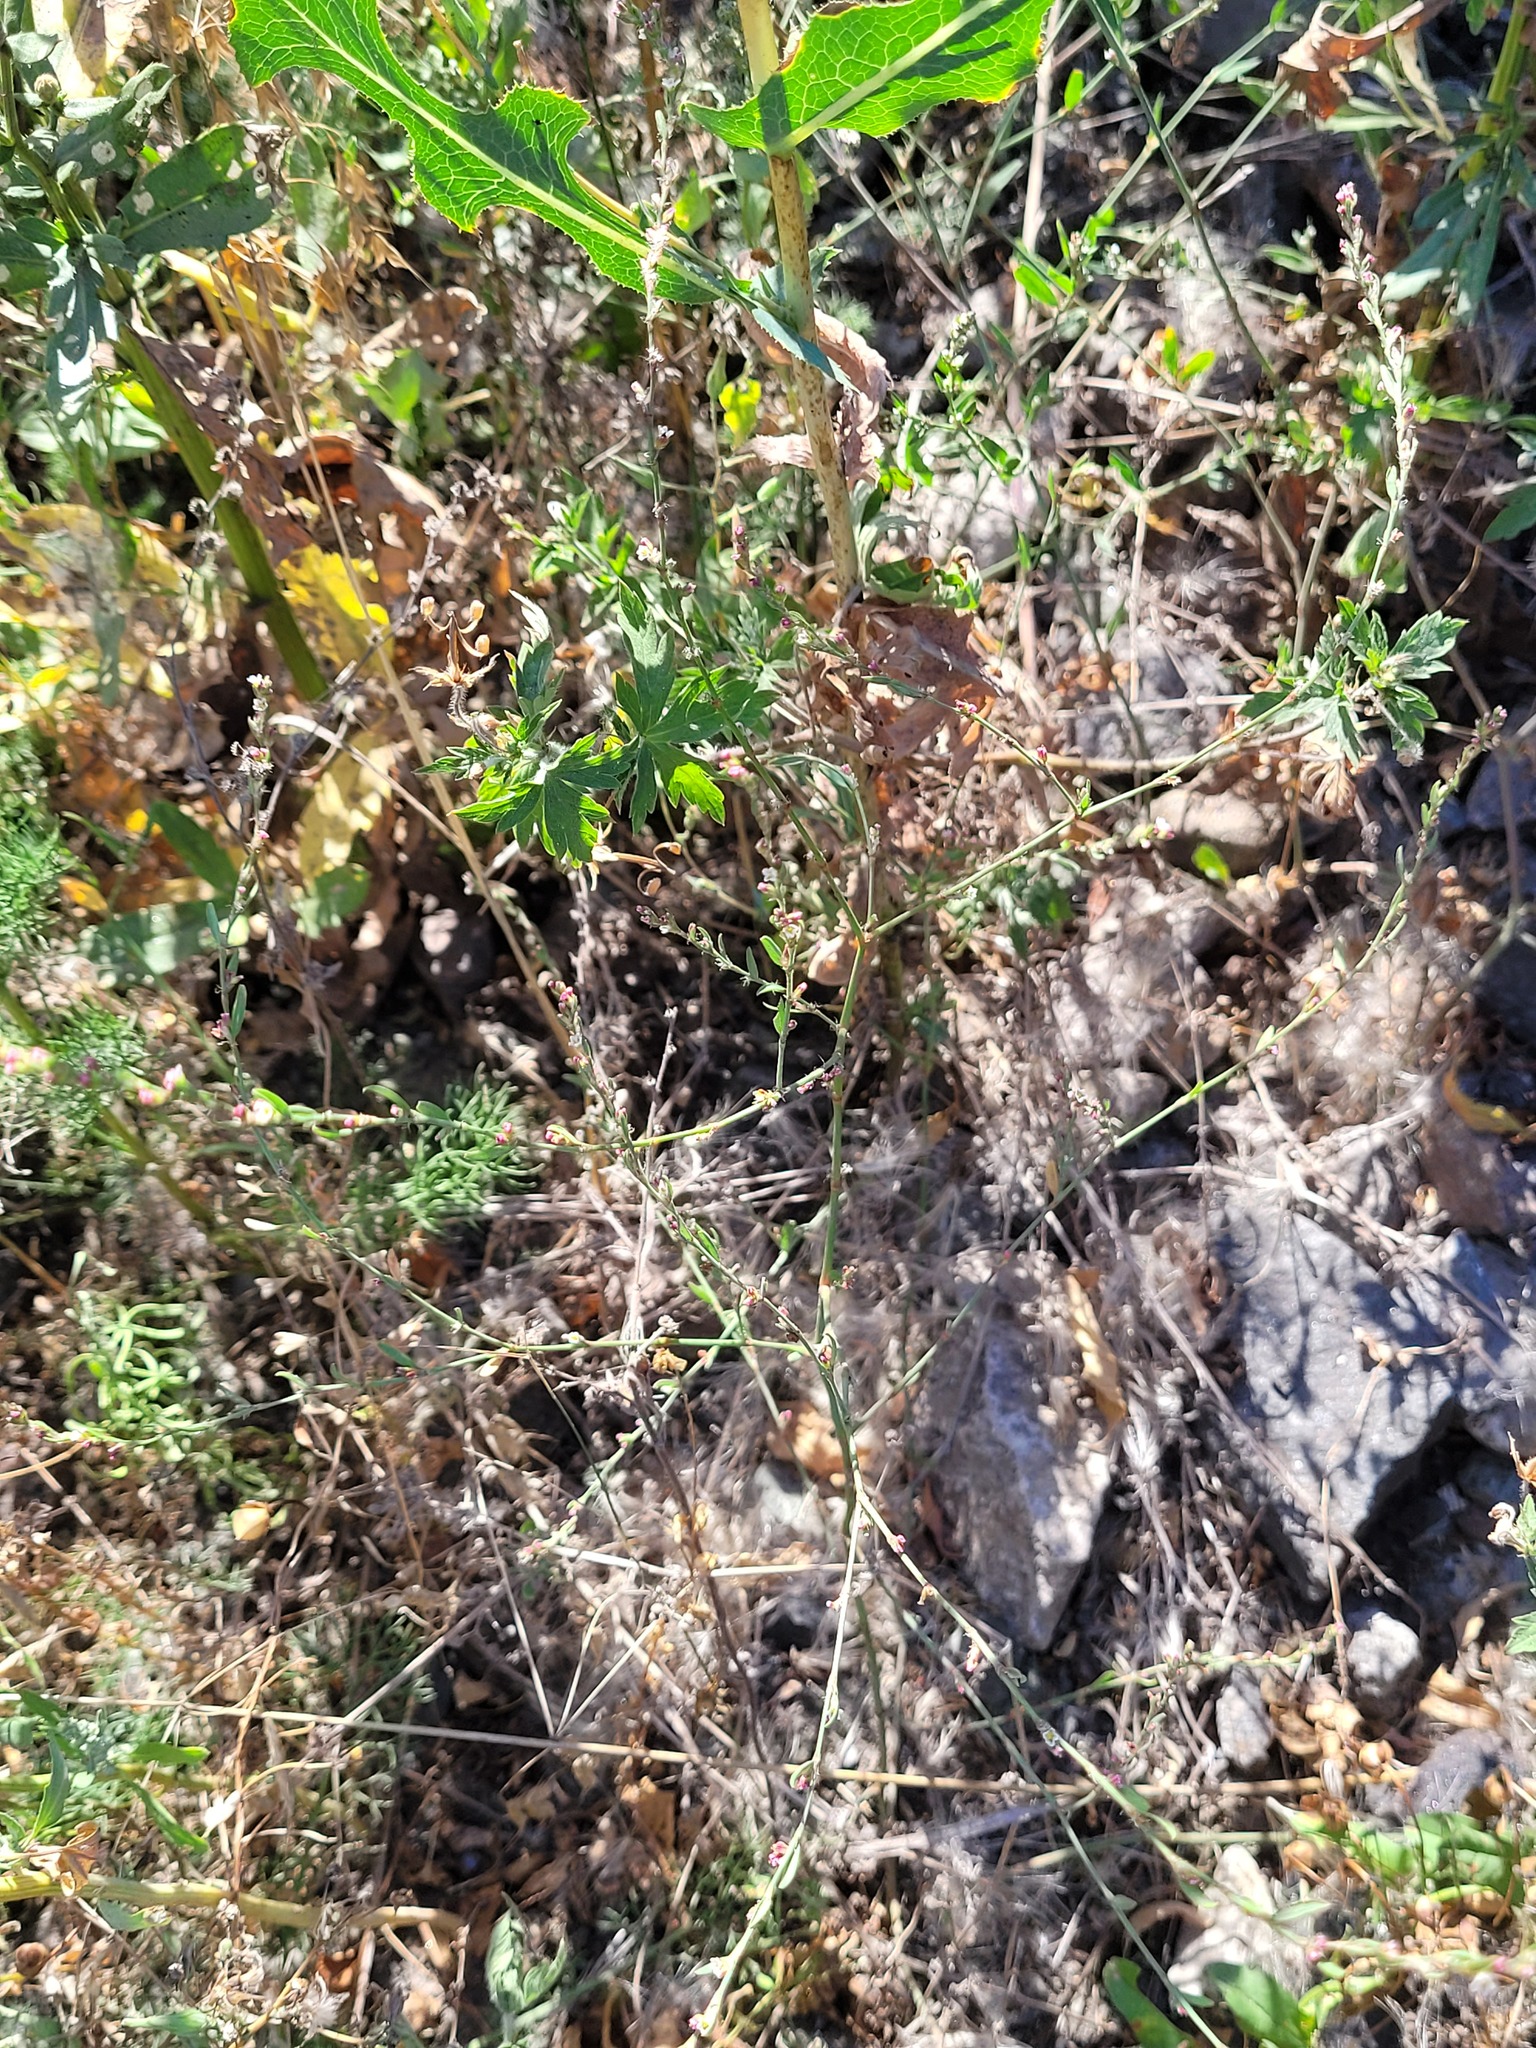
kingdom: Plantae
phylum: Tracheophyta
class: Magnoliopsida
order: Caryophyllales
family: Polygonaceae
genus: Polygonum
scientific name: Polygonum
